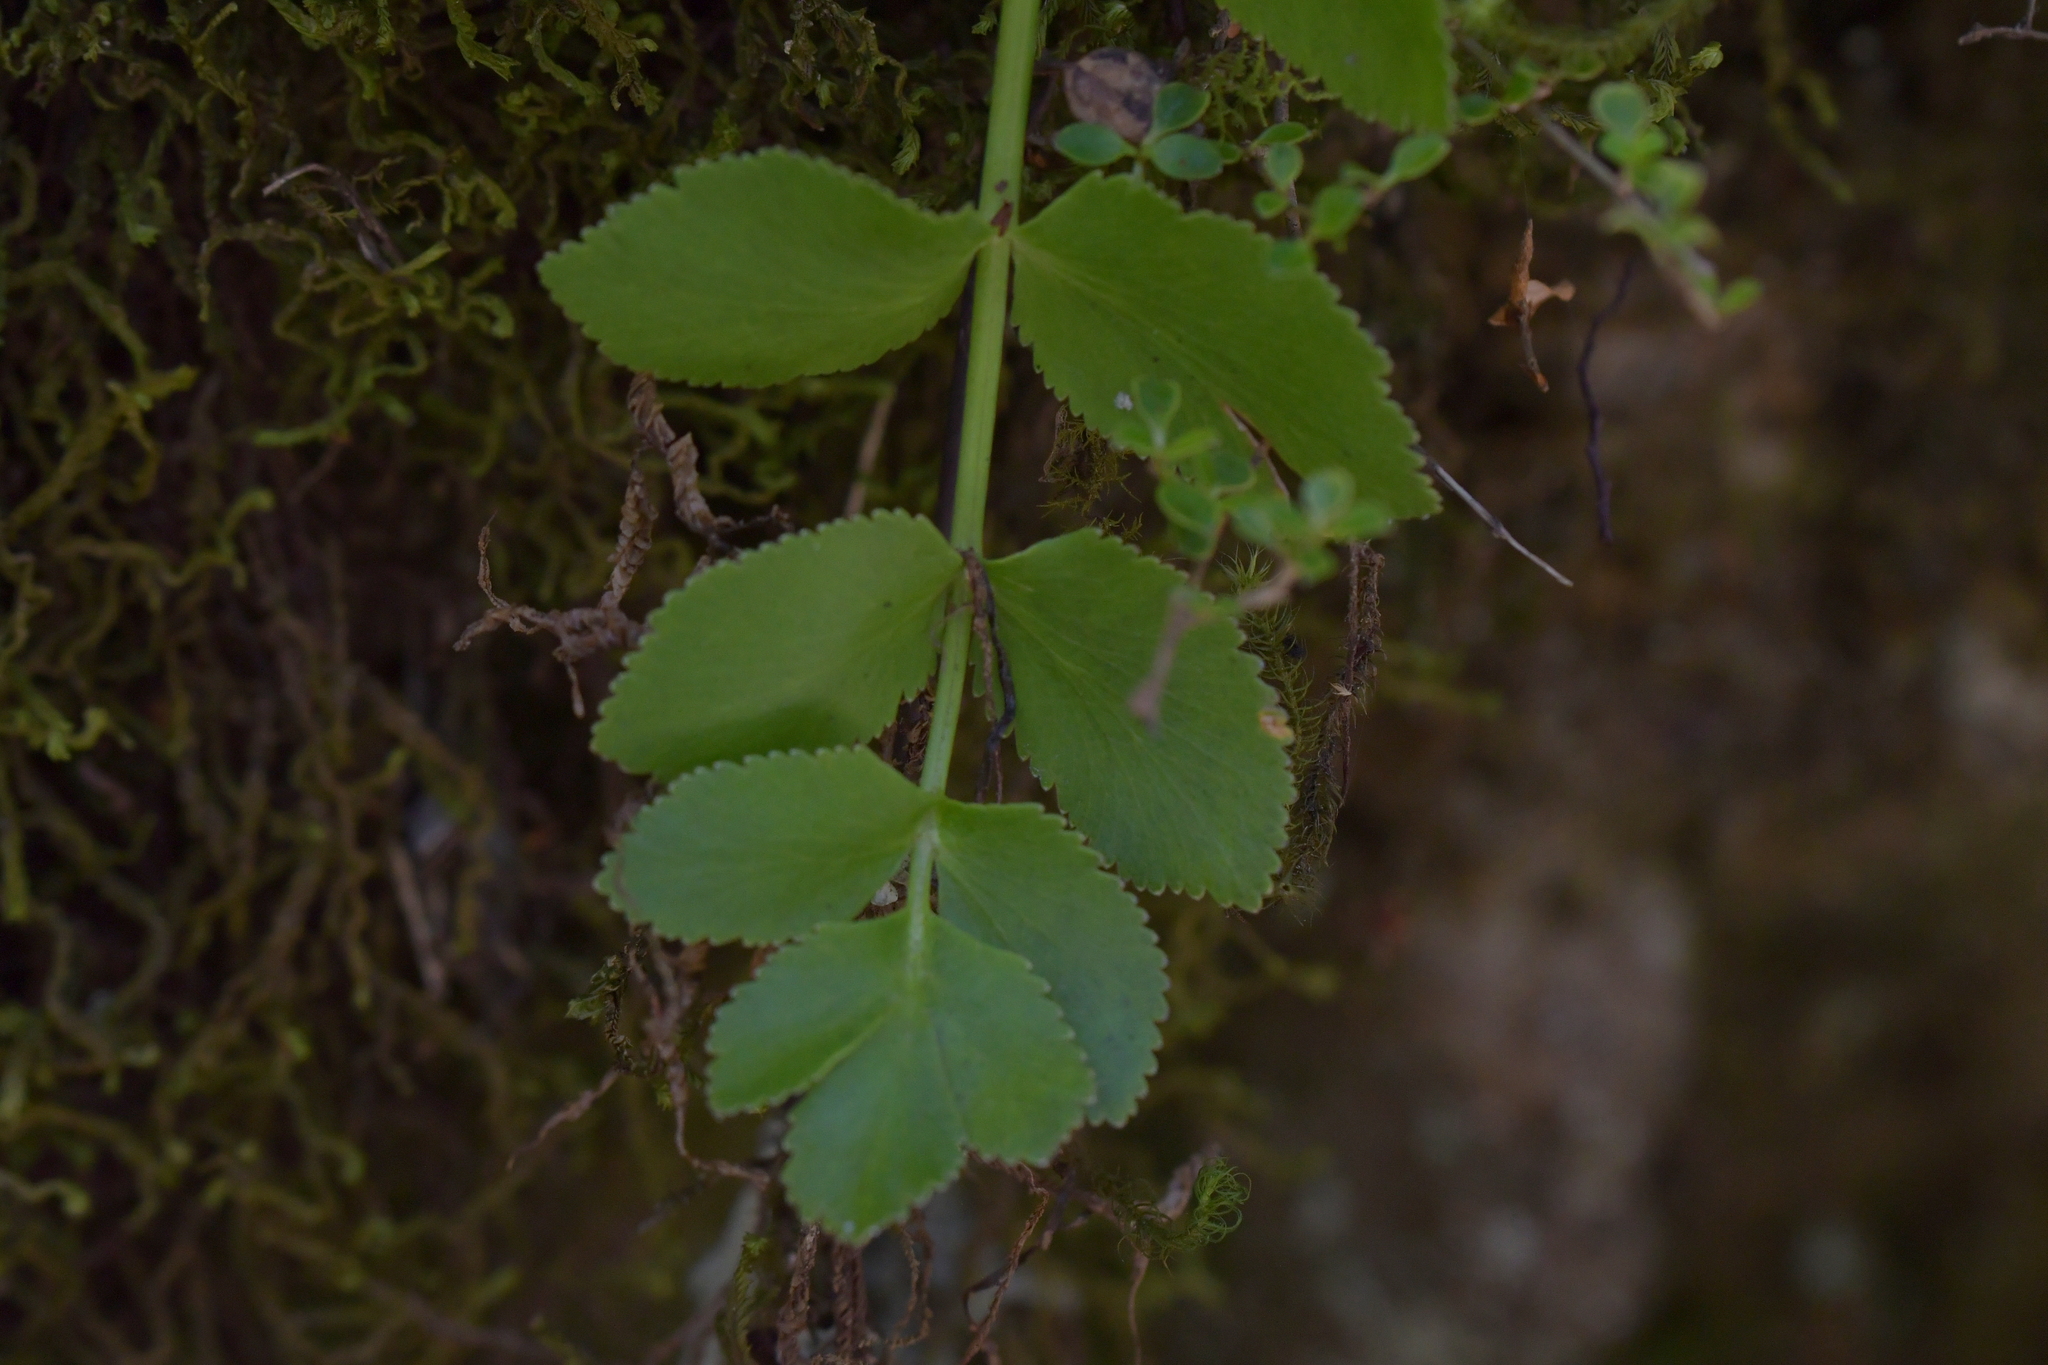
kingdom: Plantae
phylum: Tracheophyta
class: Magnoliopsida
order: Apiales
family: Apiaceae
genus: Gingidia
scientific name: Gingidia montana
